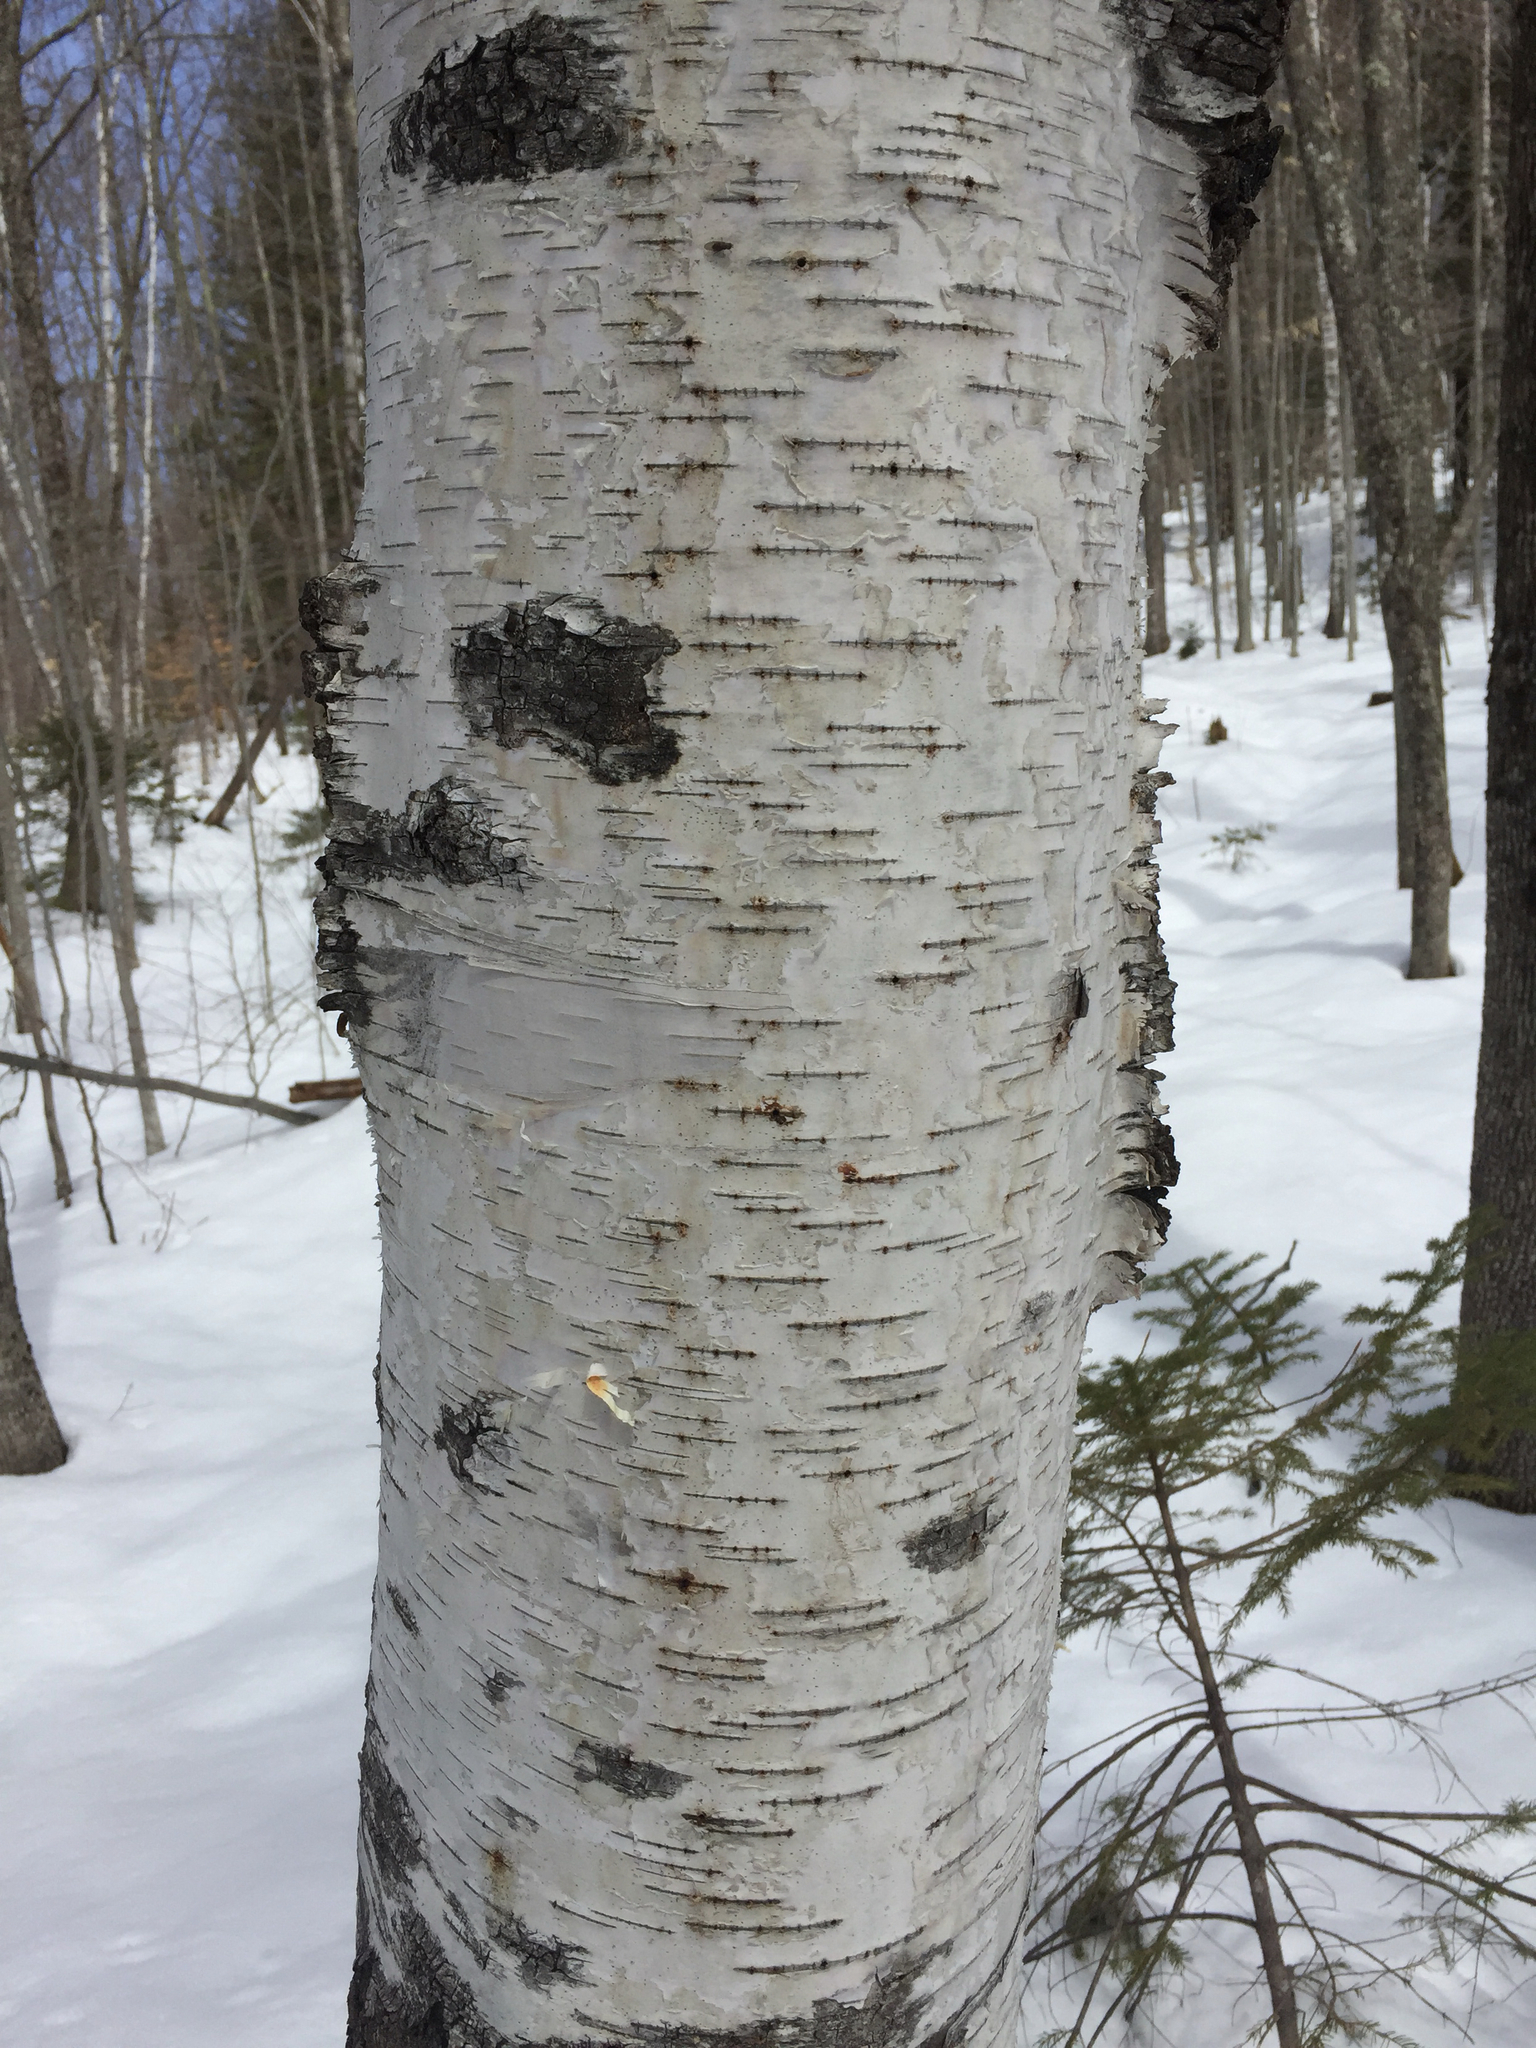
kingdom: Plantae
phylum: Tracheophyta
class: Magnoliopsida
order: Fagales
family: Betulaceae
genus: Betula
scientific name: Betula papyrifera
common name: Paper birch
